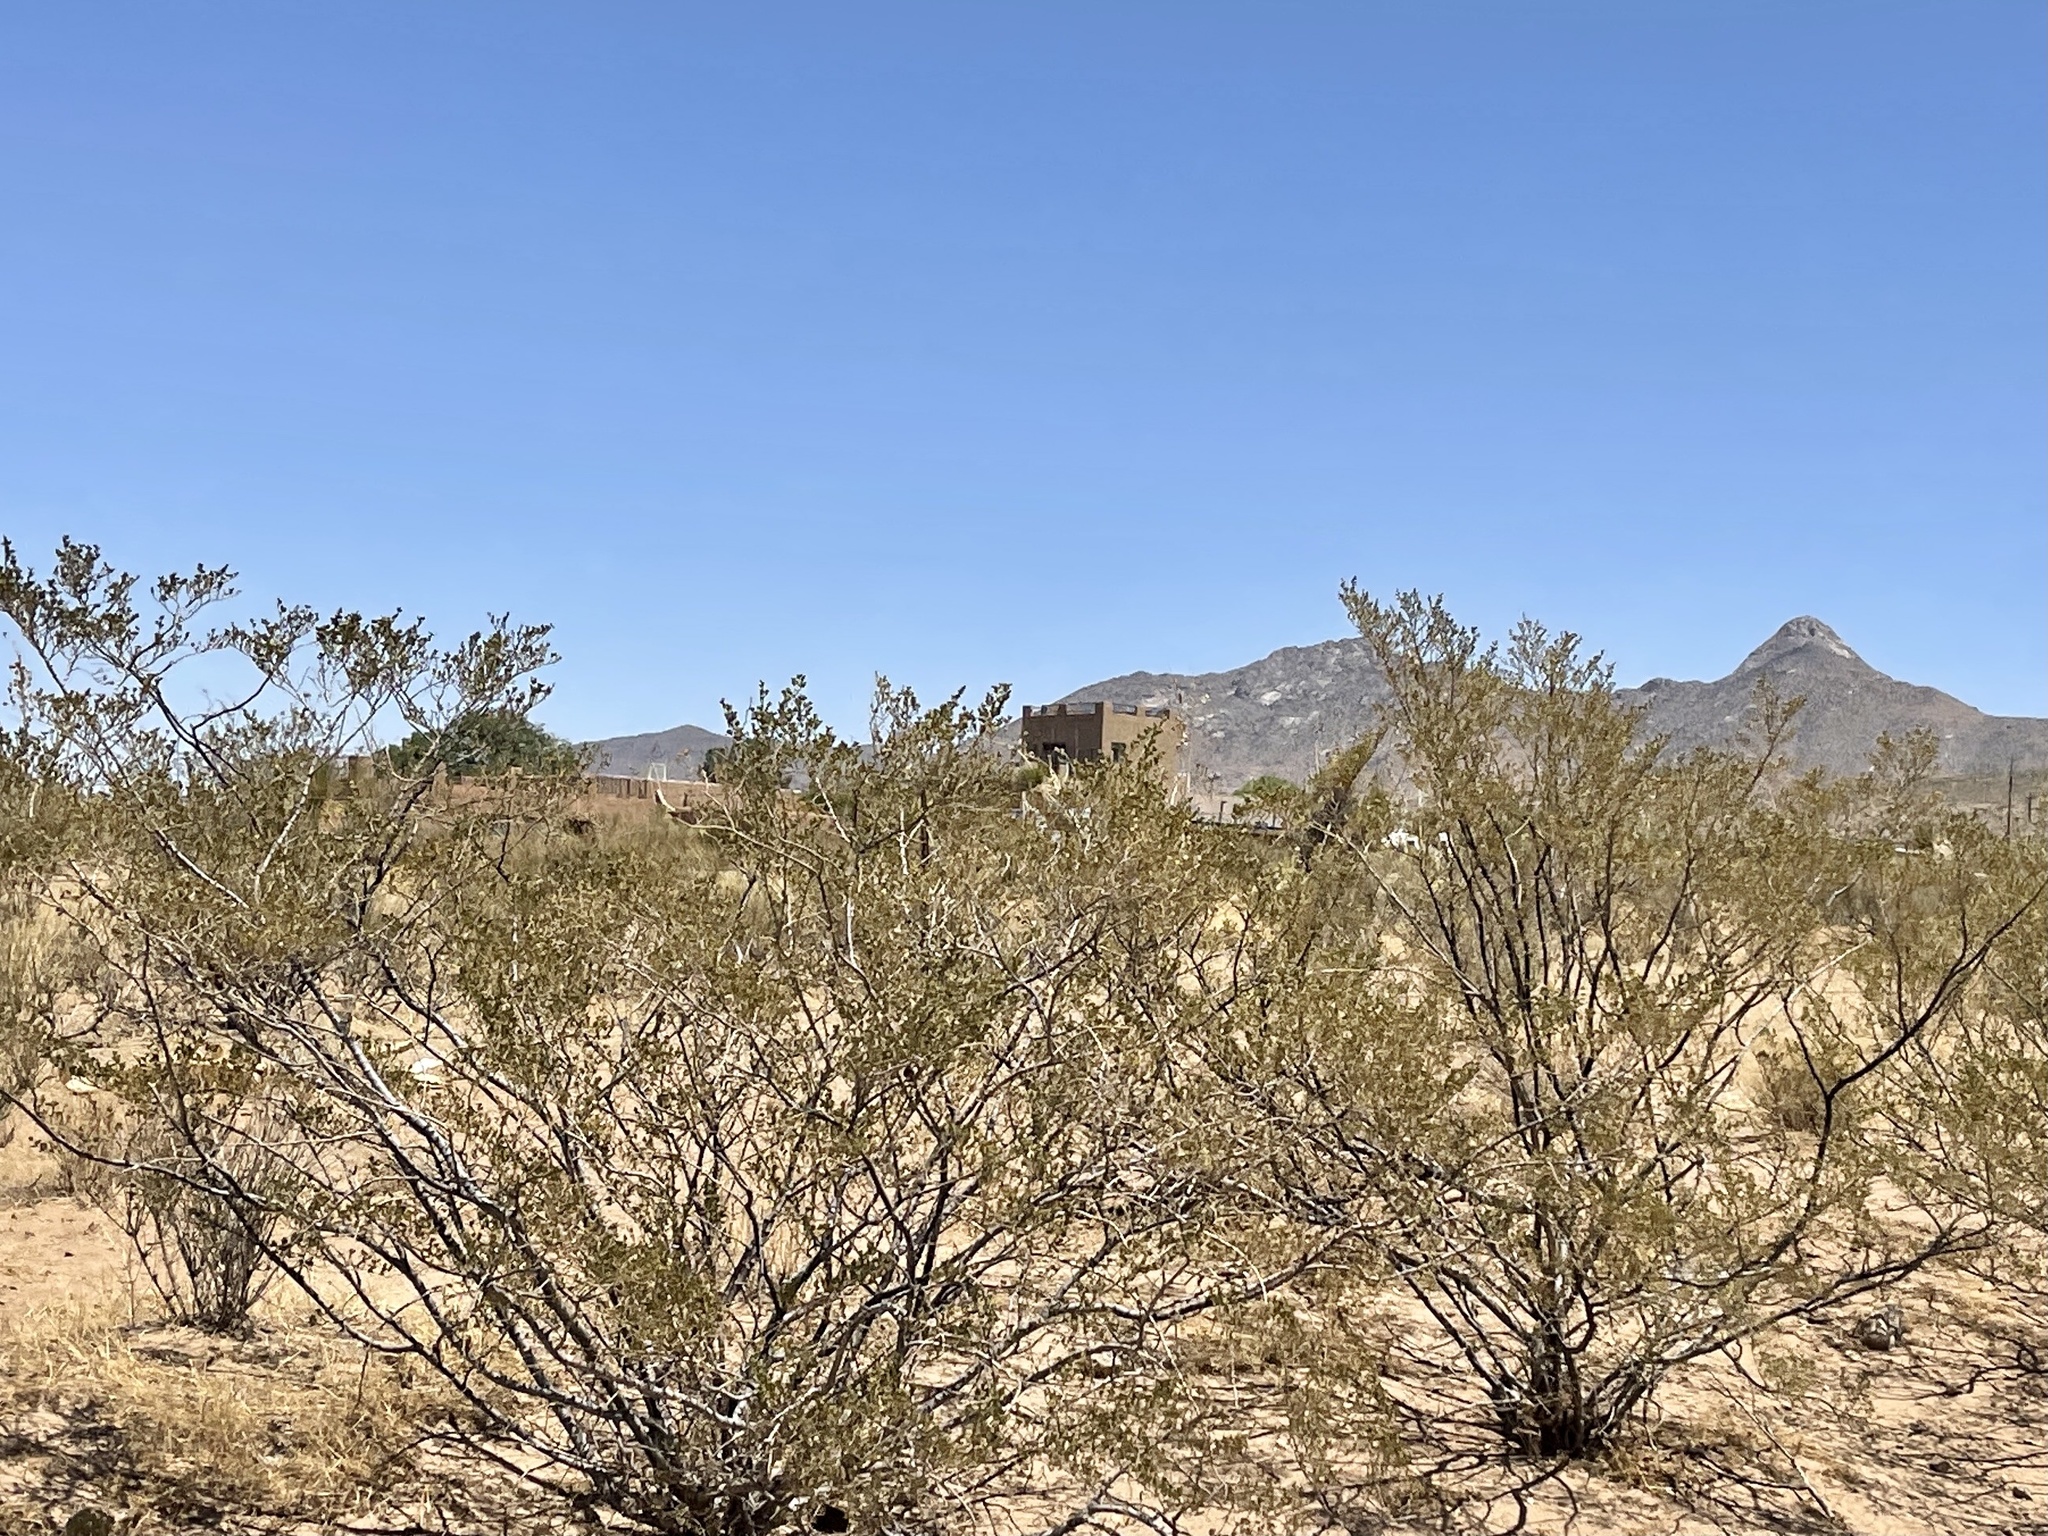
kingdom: Plantae
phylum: Tracheophyta
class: Magnoliopsida
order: Zygophyllales
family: Zygophyllaceae
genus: Larrea
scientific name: Larrea tridentata
